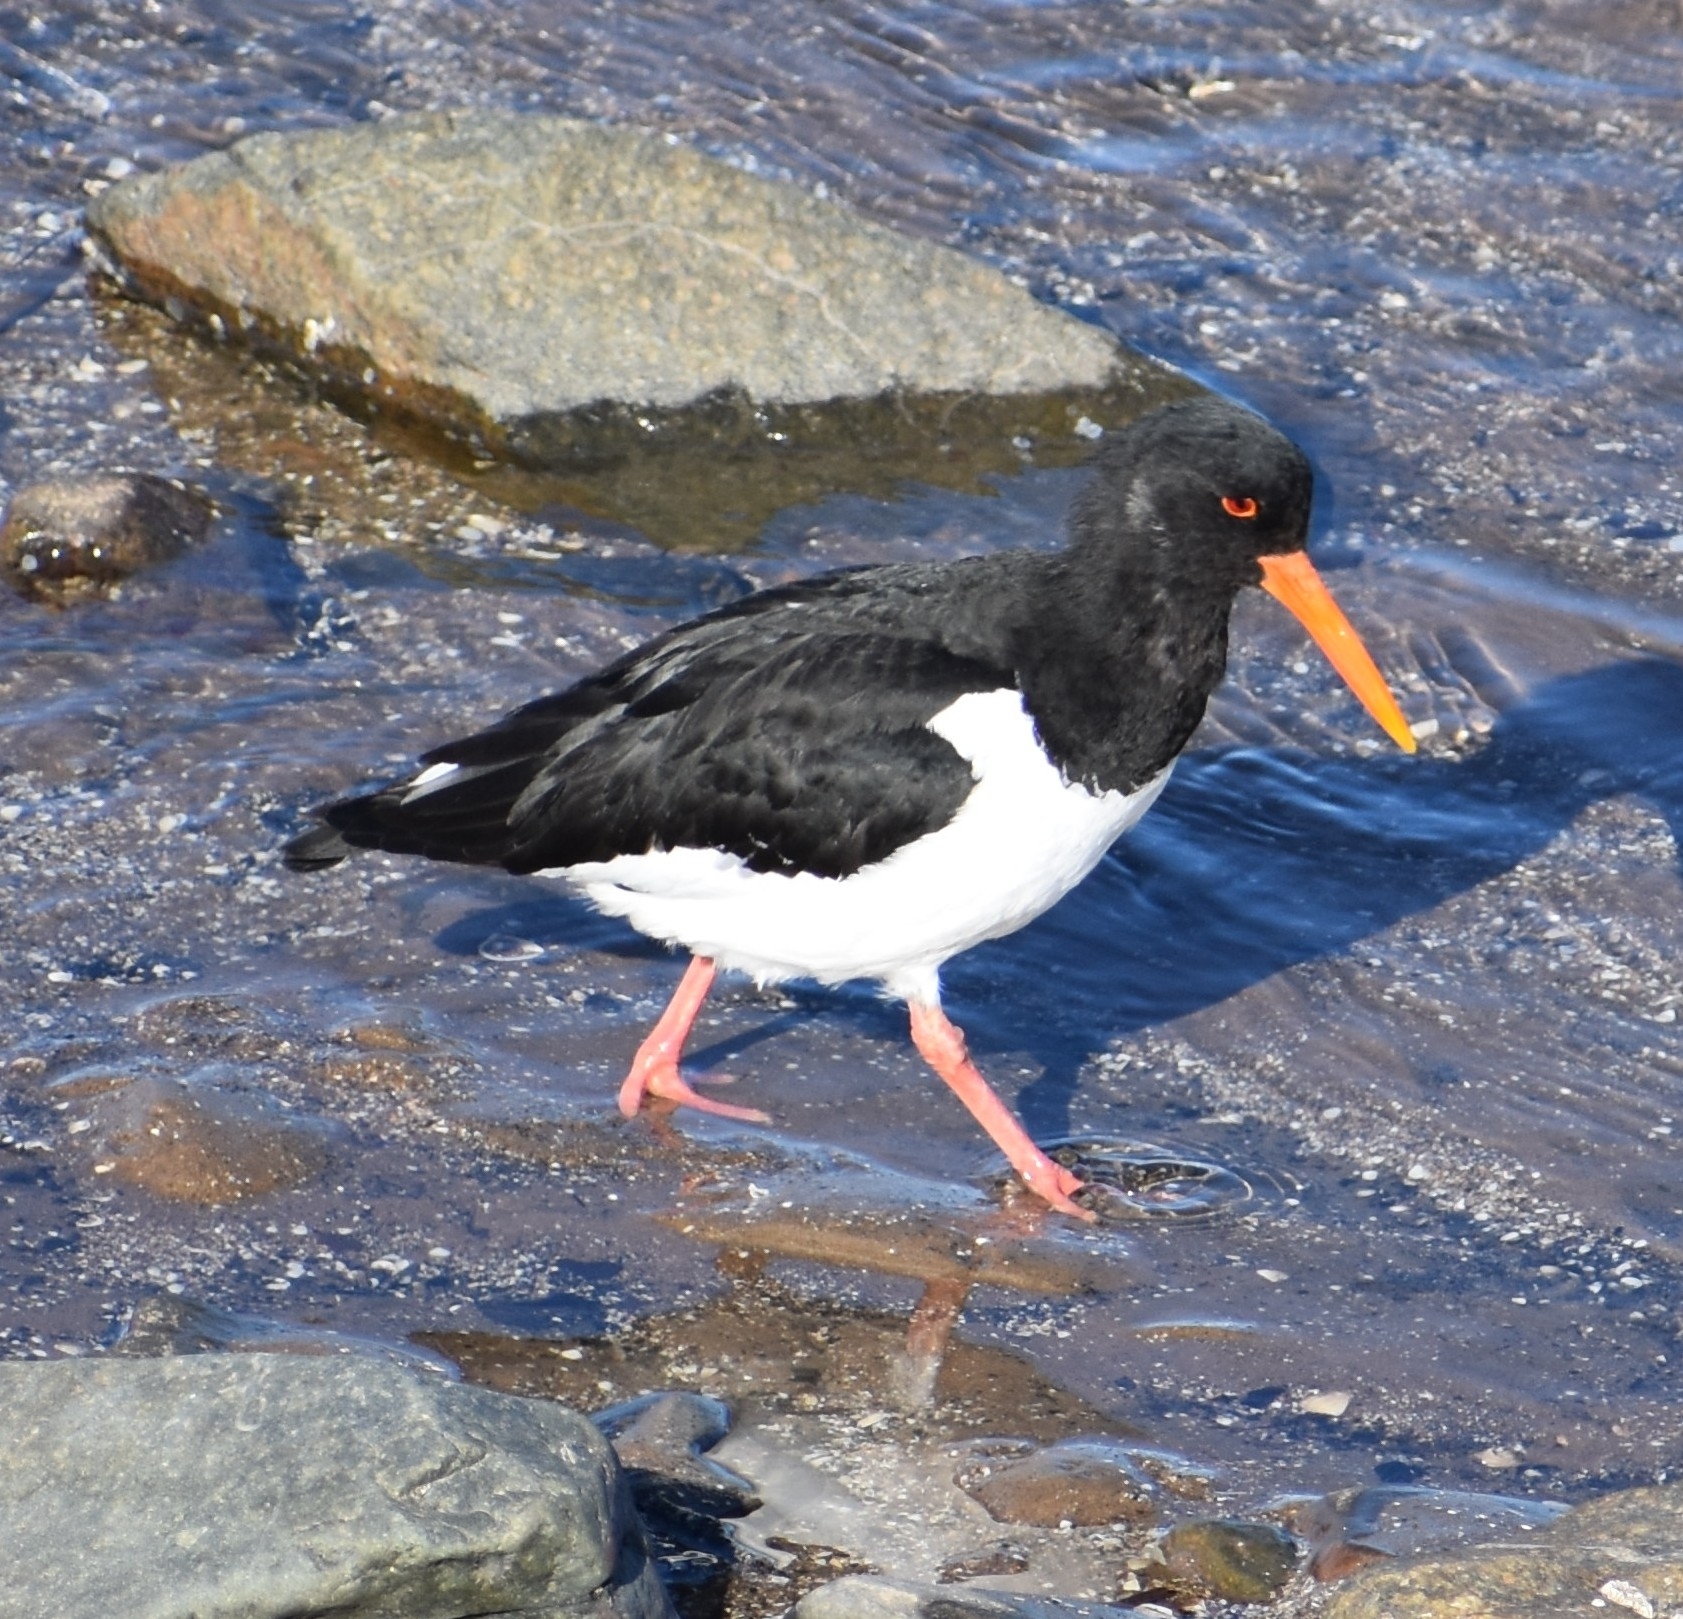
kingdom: Animalia
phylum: Chordata
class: Aves
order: Charadriiformes
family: Haematopodidae
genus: Haematopus
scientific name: Haematopus ostralegus
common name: Eurasian oystercatcher
